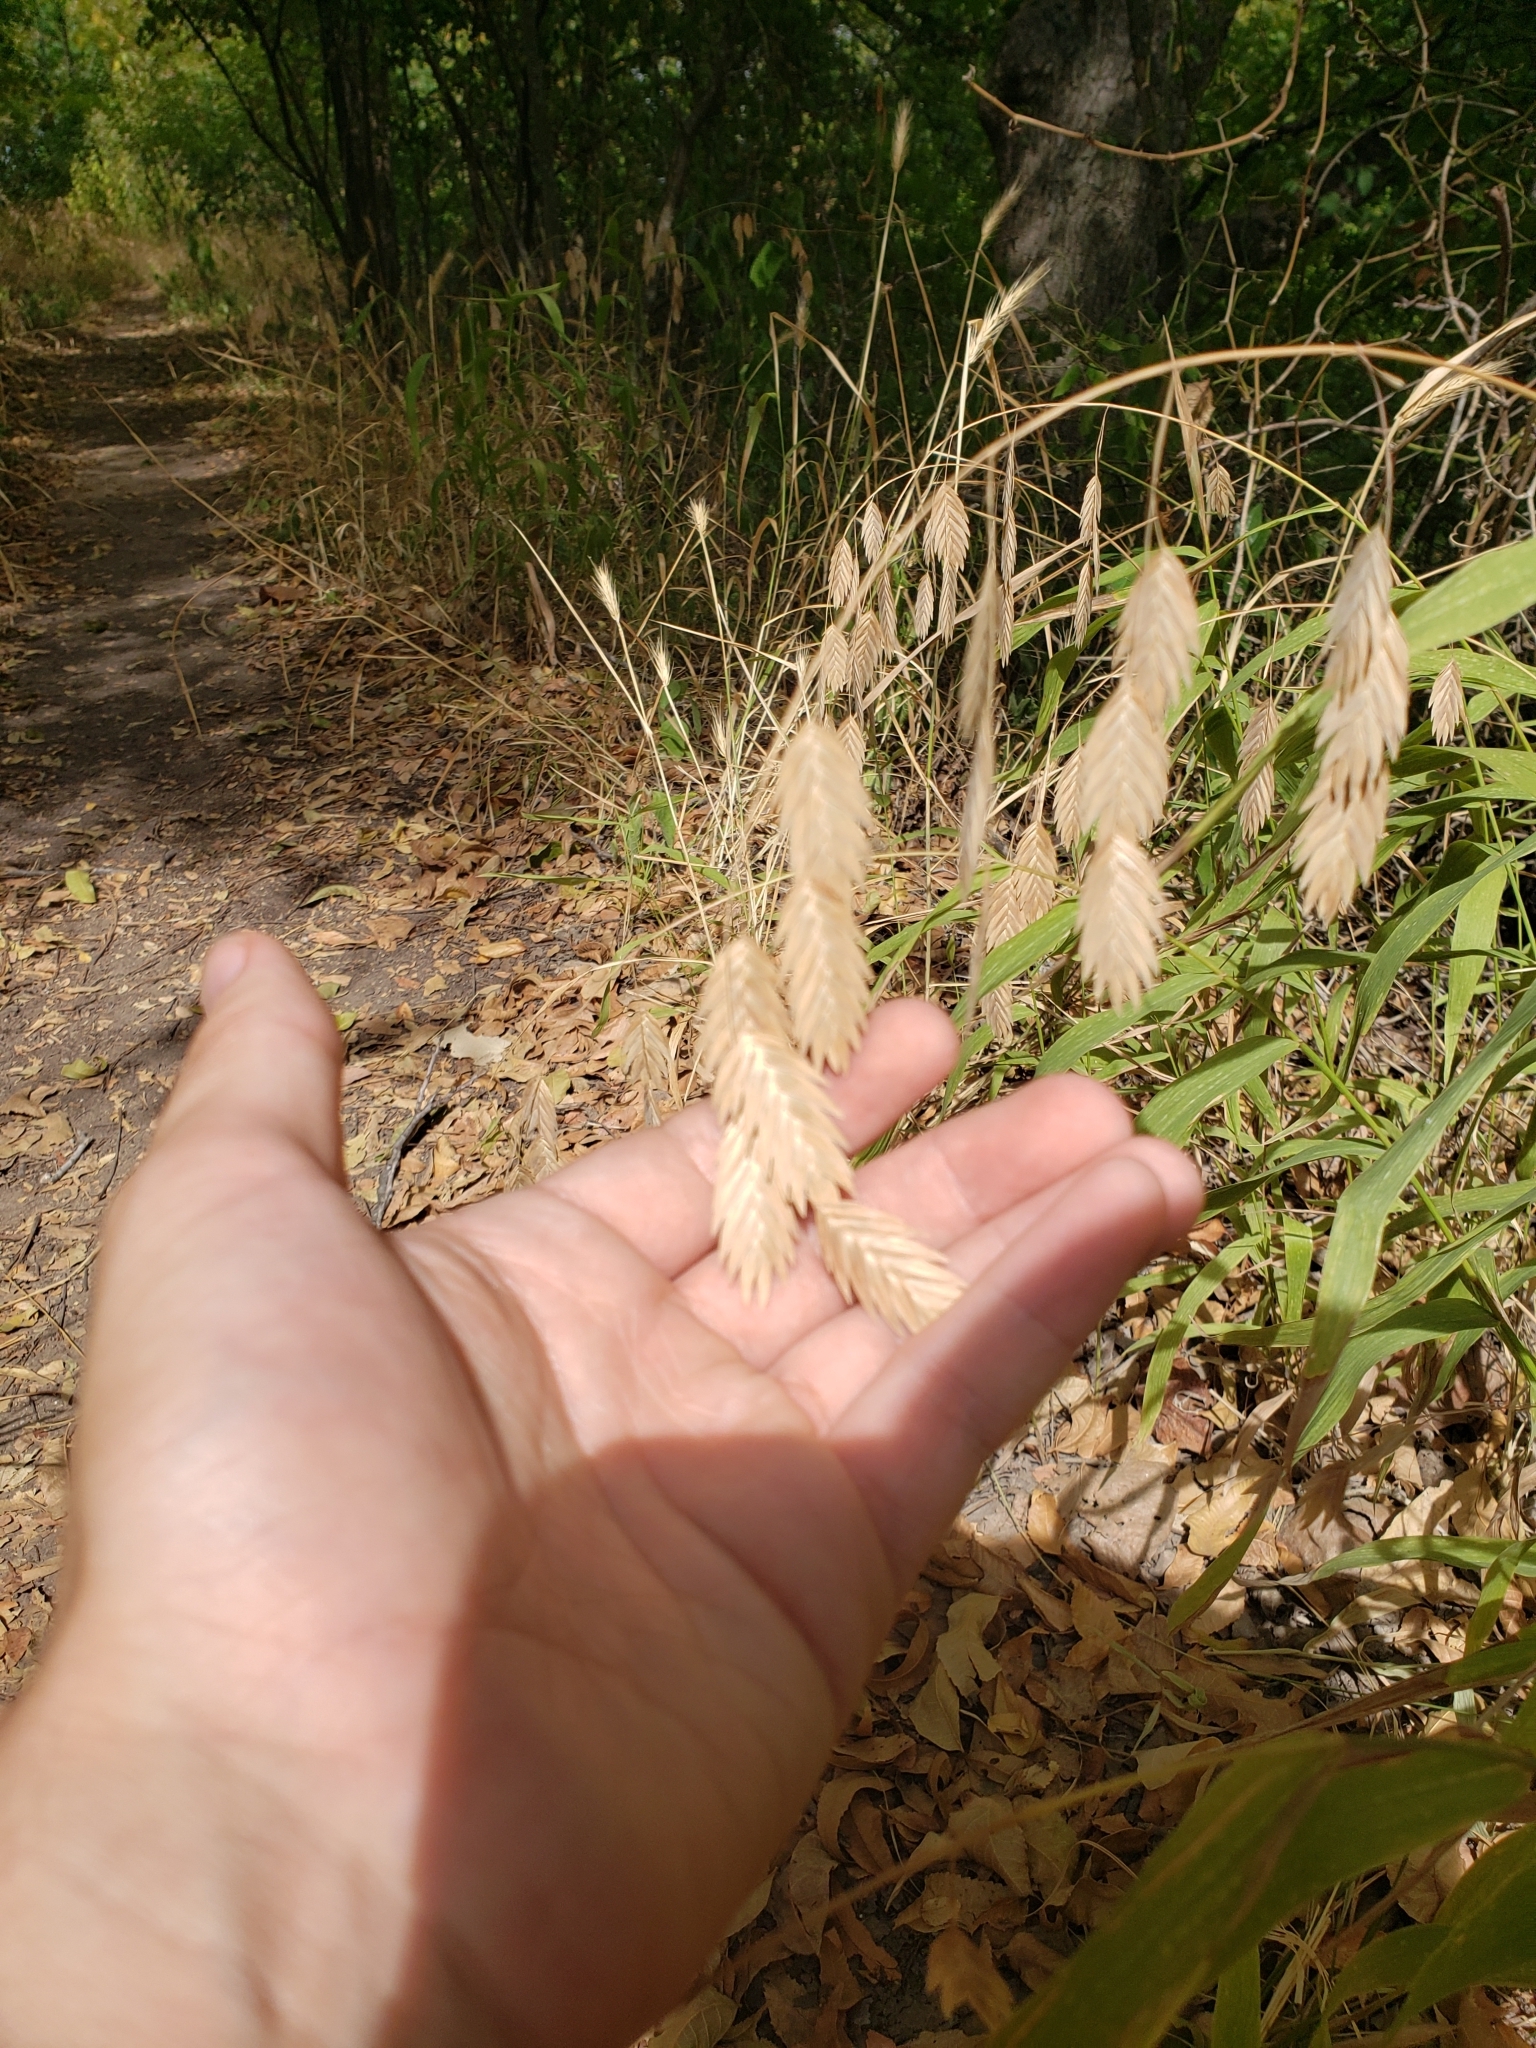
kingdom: Plantae
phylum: Tracheophyta
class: Liliopsida
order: Poales
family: Poaceae
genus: Chasmanthium
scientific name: Chasmanthium latifolium
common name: Broad-leaved chasmanthium
